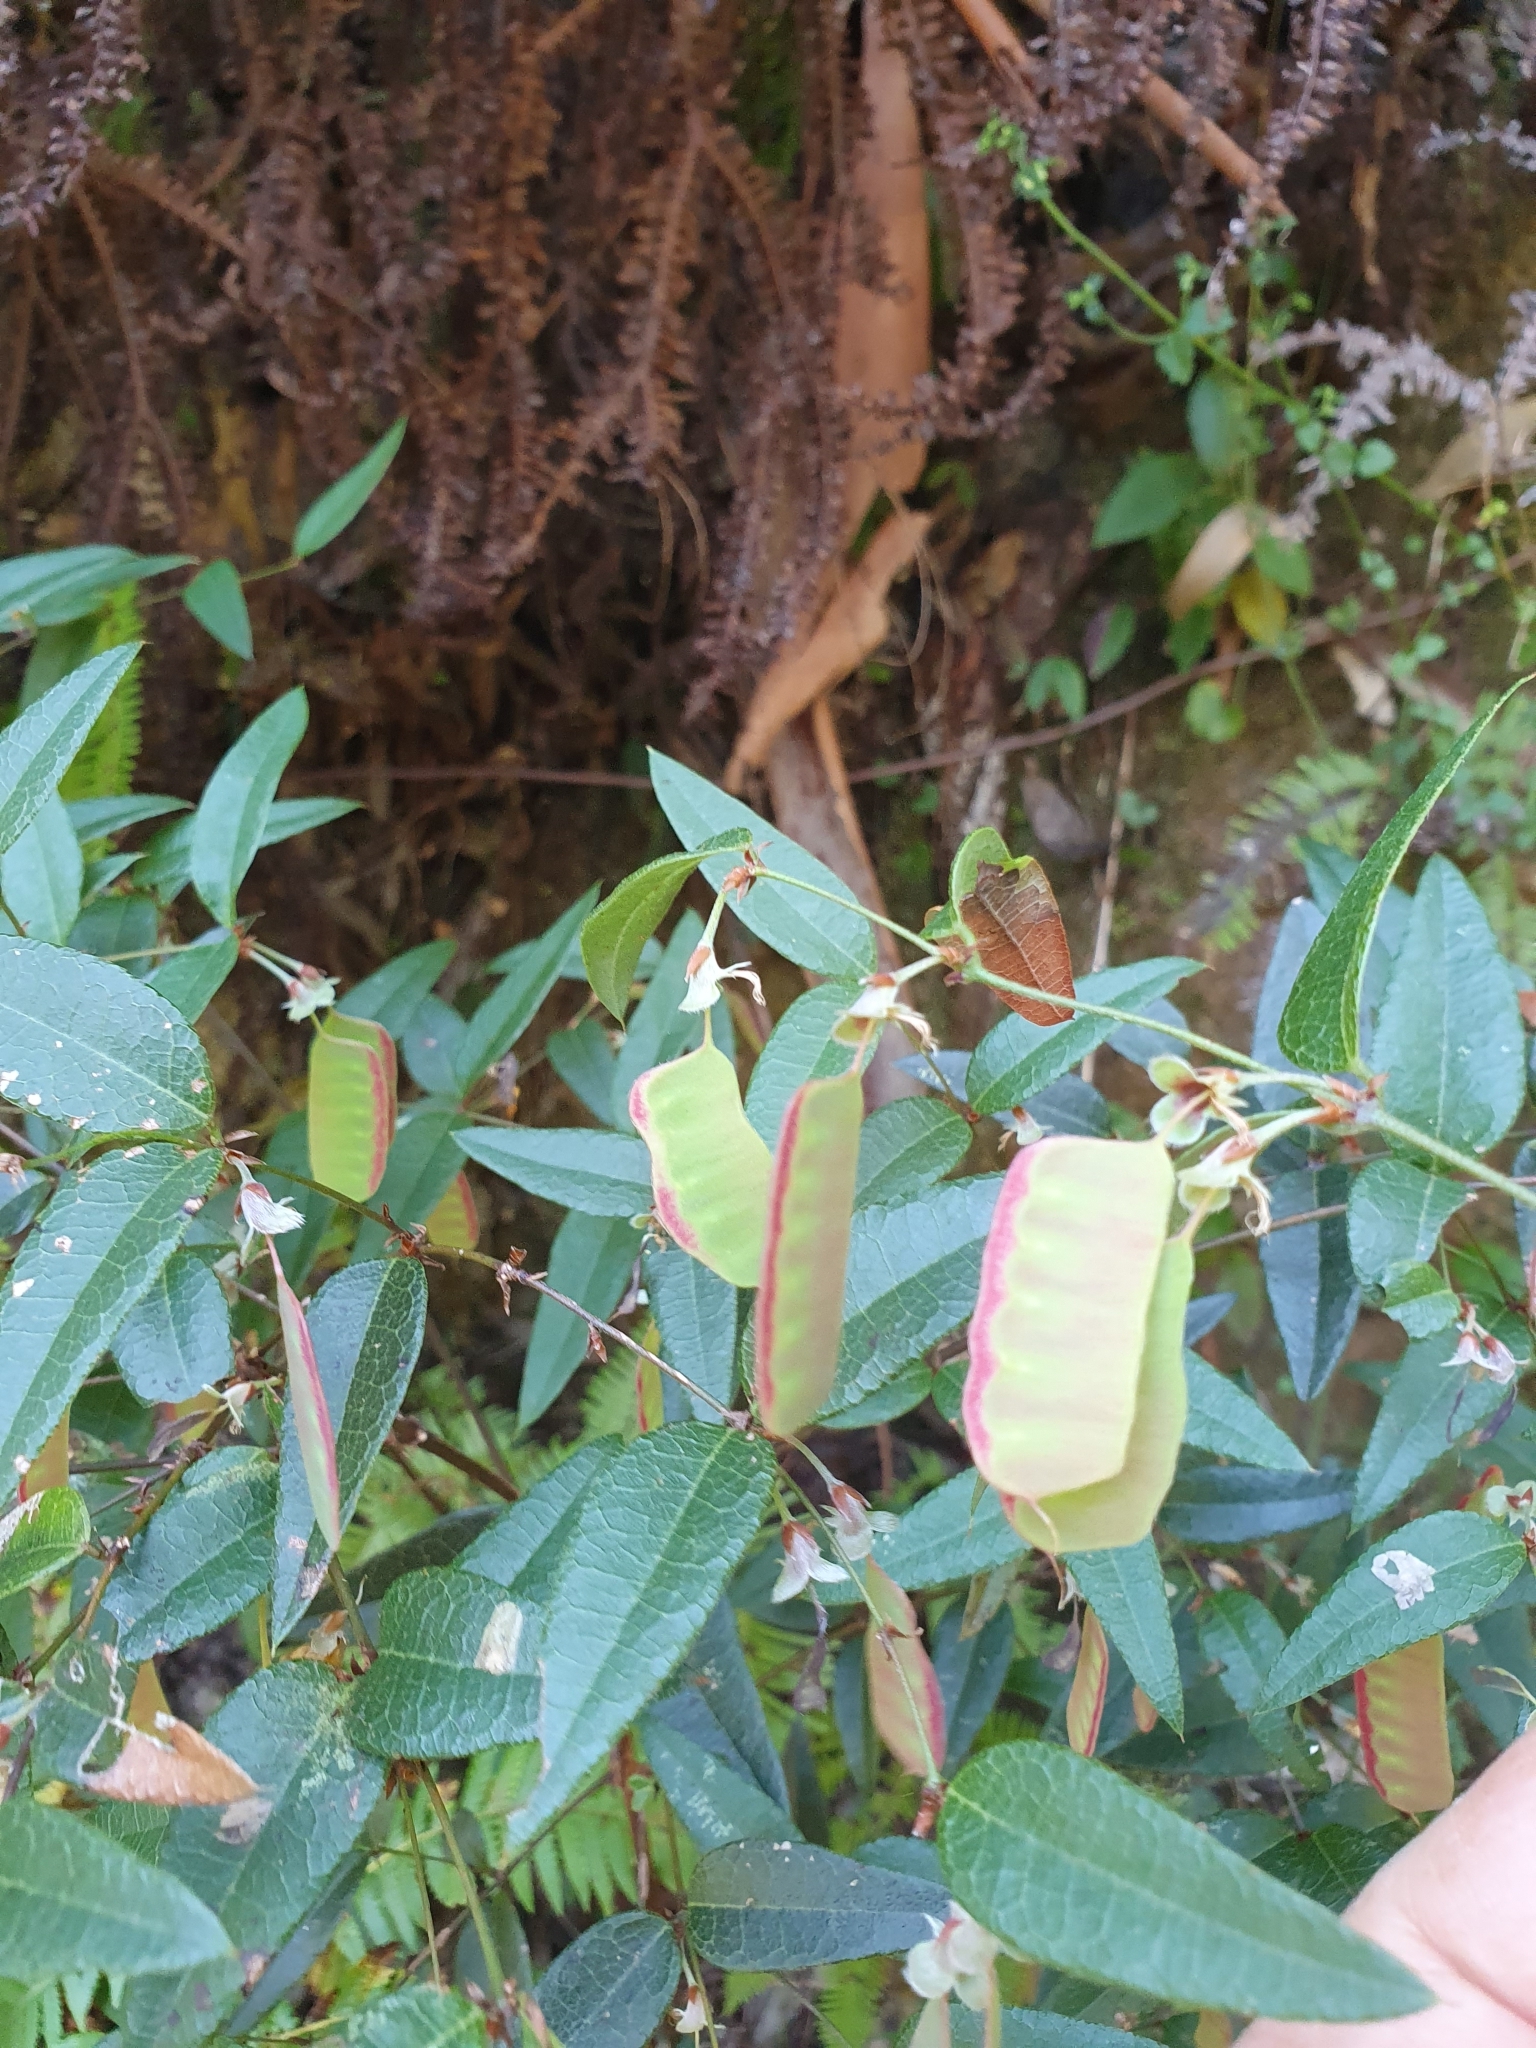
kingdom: Plantae
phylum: Tracheophyta
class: Magnoliopsida
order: Fabales
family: Fabaceae
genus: Platylobium
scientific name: Platylobium formosum
